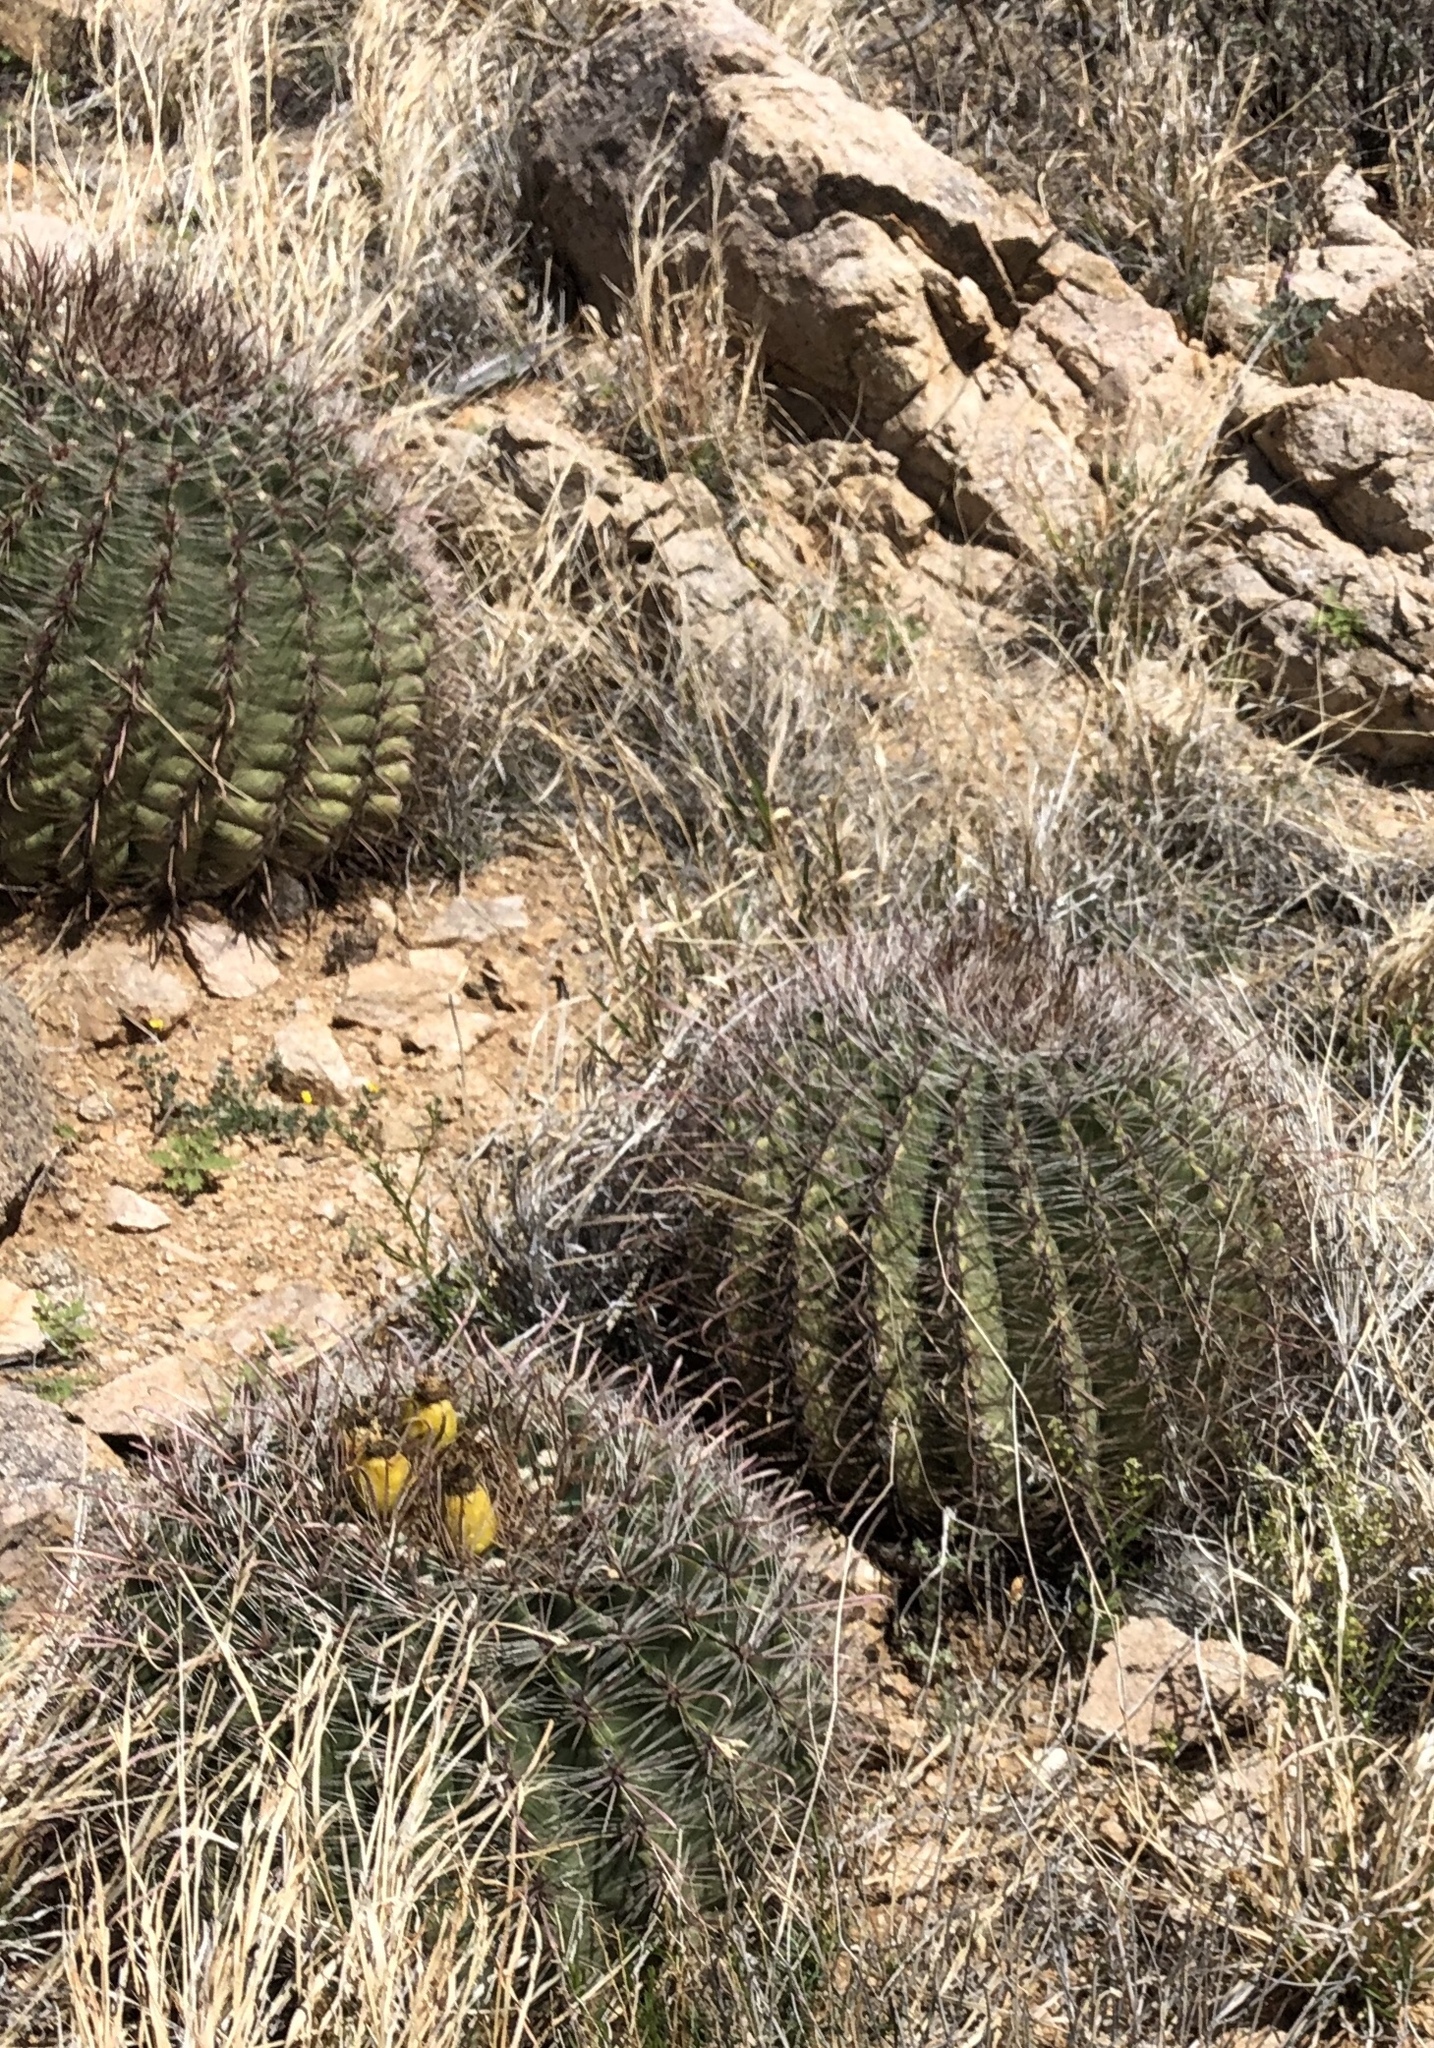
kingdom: Plantae
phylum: Tracheophyta
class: Magnoliopsida
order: Caryophyllales
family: Cactaceae
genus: Ferocactus
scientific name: Ferocactus wislizeni
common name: Candy barrel cactus
